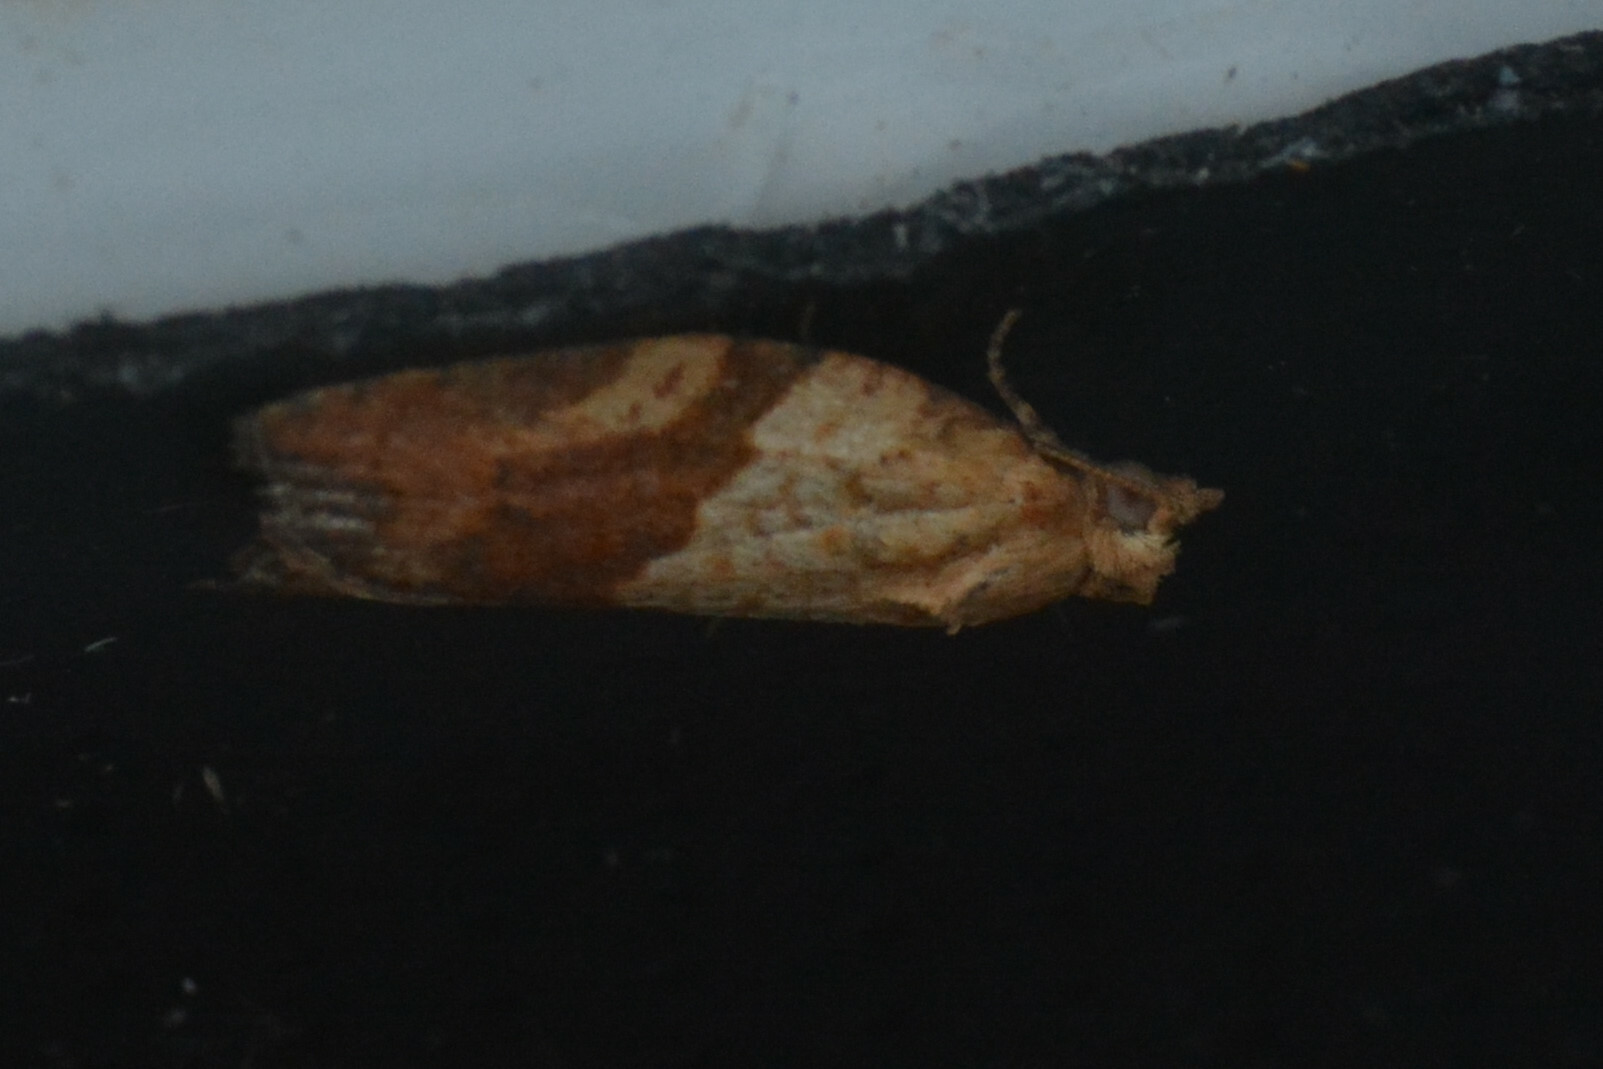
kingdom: Animalia
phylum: Arthropoda
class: Insecta
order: Lepidoptera
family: Tortricidae
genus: Epiphyas
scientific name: Epiphyas postvittana
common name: Light brown apple moth
